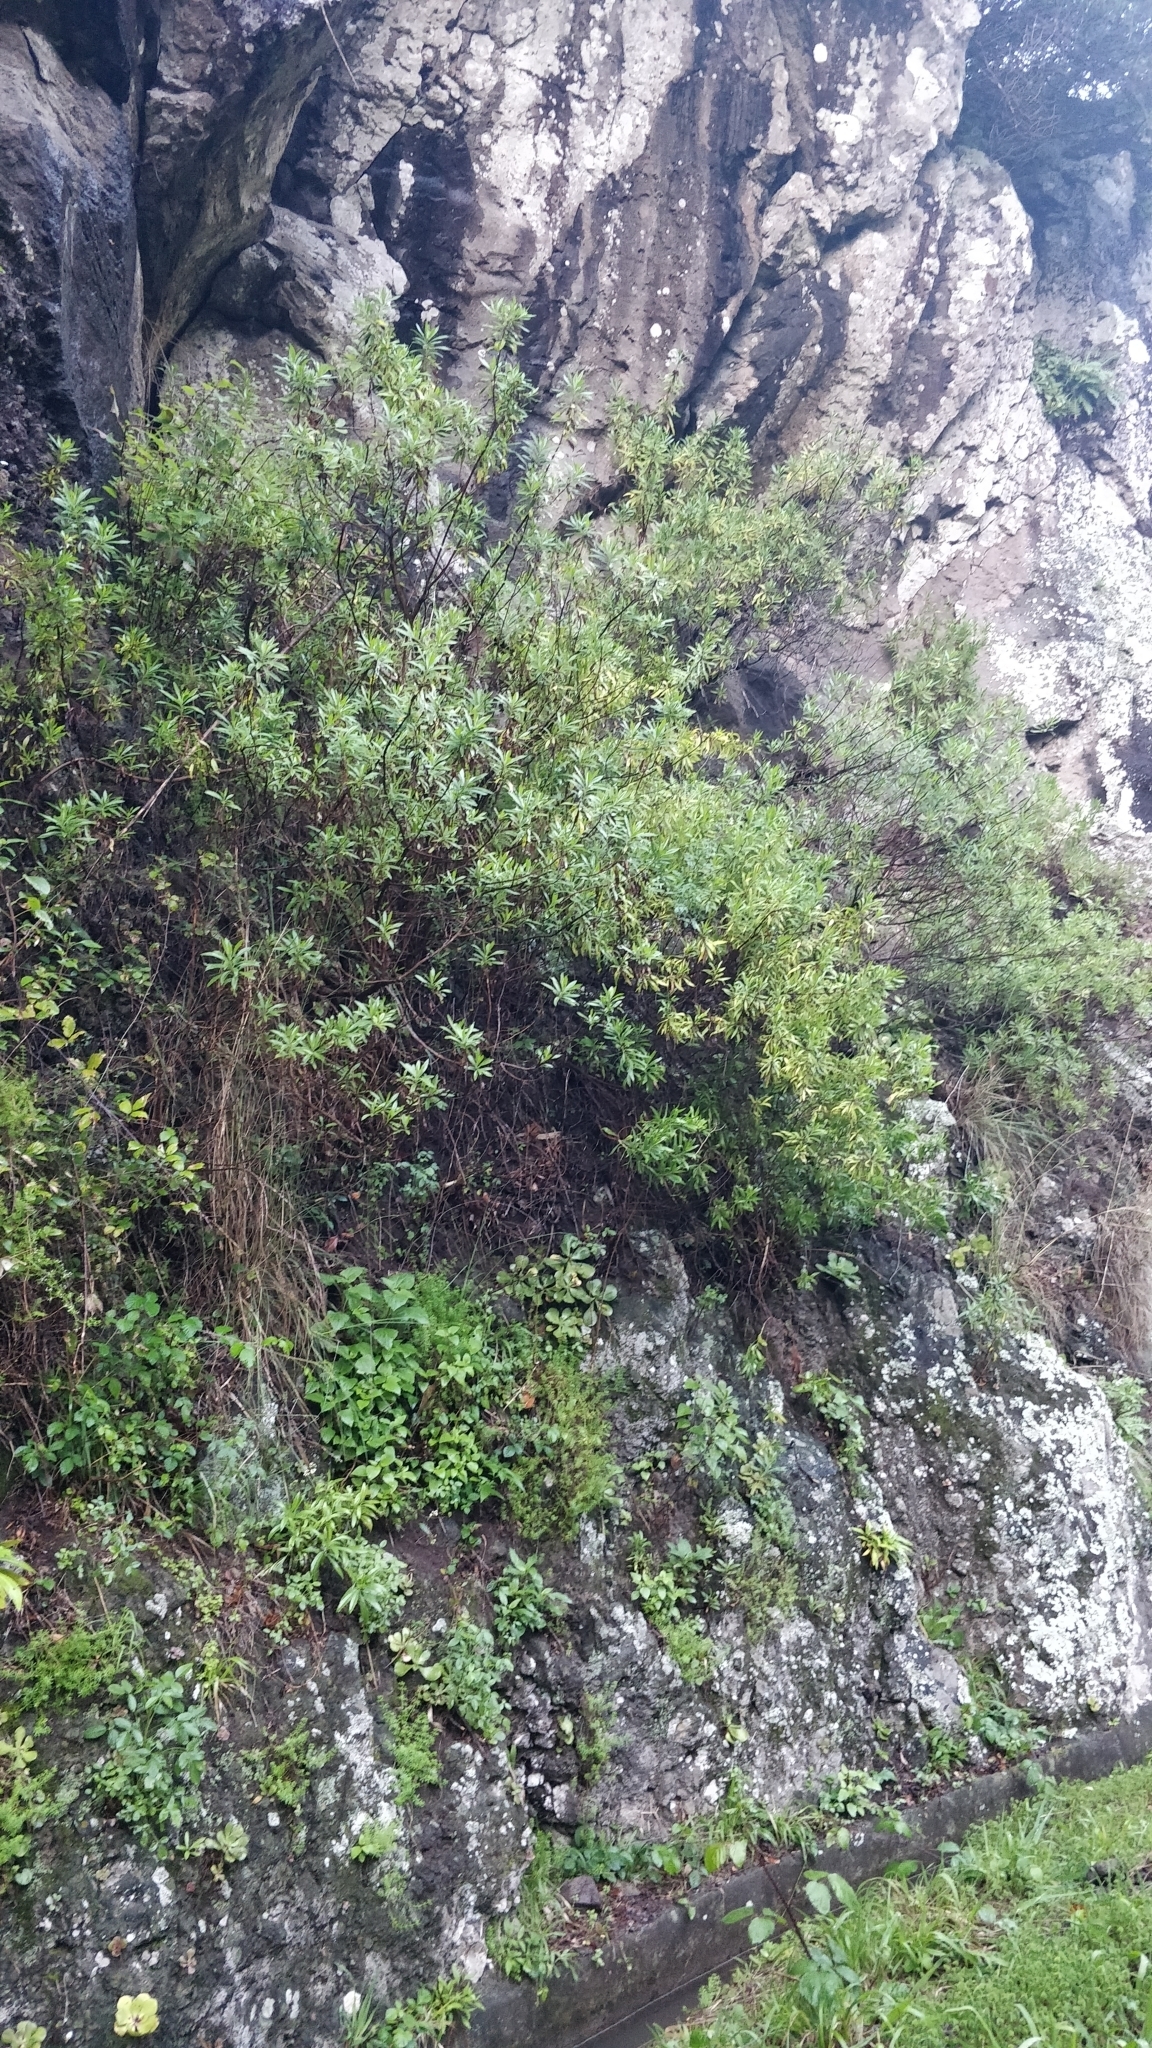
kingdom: Plantae
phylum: Tracheophyta
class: Magnoliopsida
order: Lamiales
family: Plantaginaceae
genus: Globularia
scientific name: Globularia salicina
